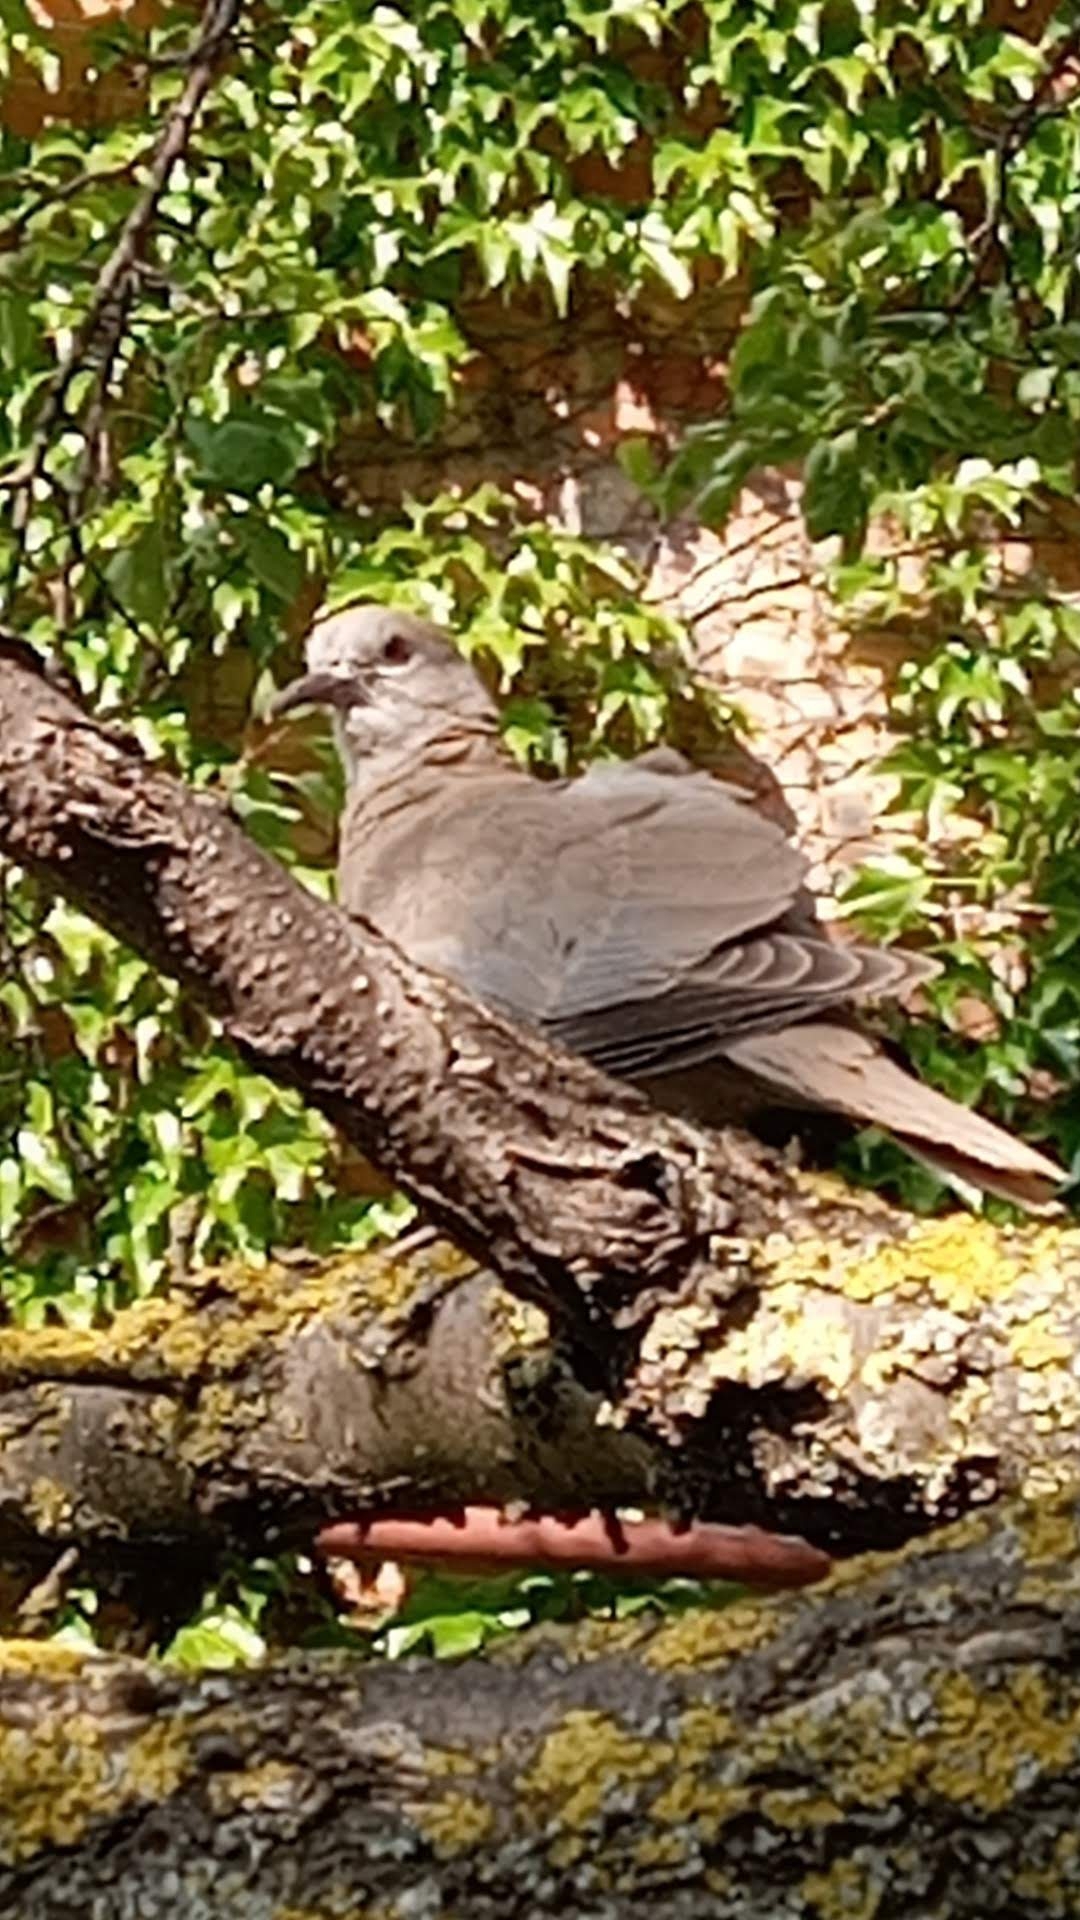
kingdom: Animalia
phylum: Chordata
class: Aves
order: Columbiformes
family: Columbidae
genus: Streptopelia
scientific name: Streptopelia decaocto
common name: Eurasian collared dove
